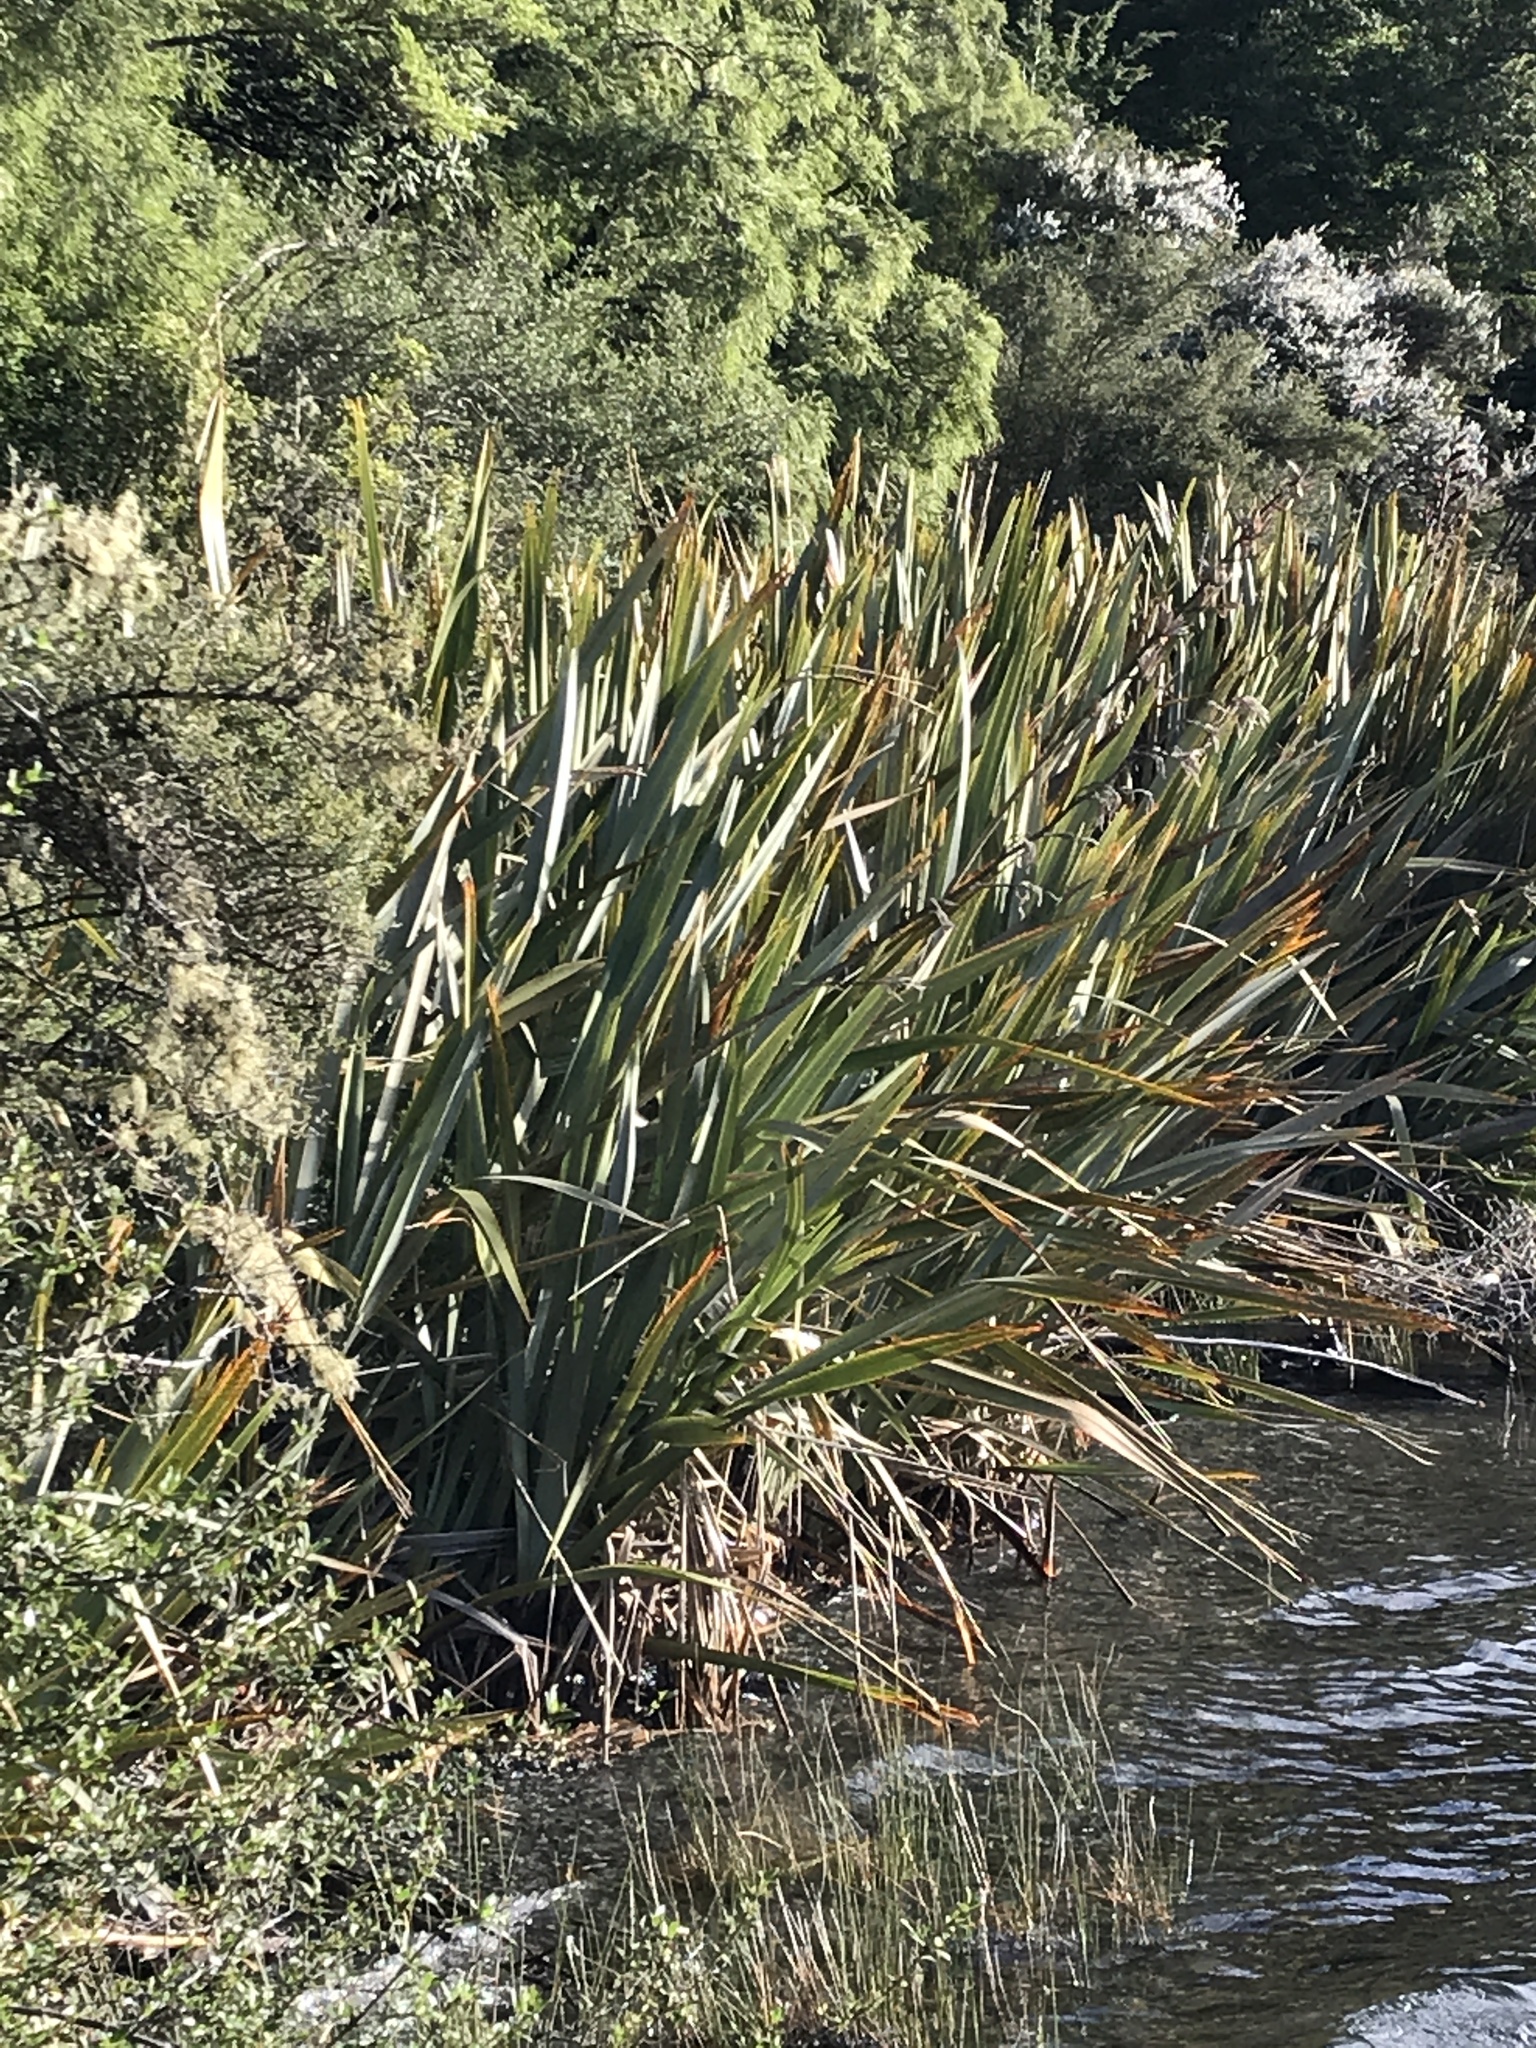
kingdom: Plantae
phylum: Tracheophyta
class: Liliopsida
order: Asparagales
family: Asphodelaceae
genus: Phormium
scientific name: Phormium tenax
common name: New zealand flax
